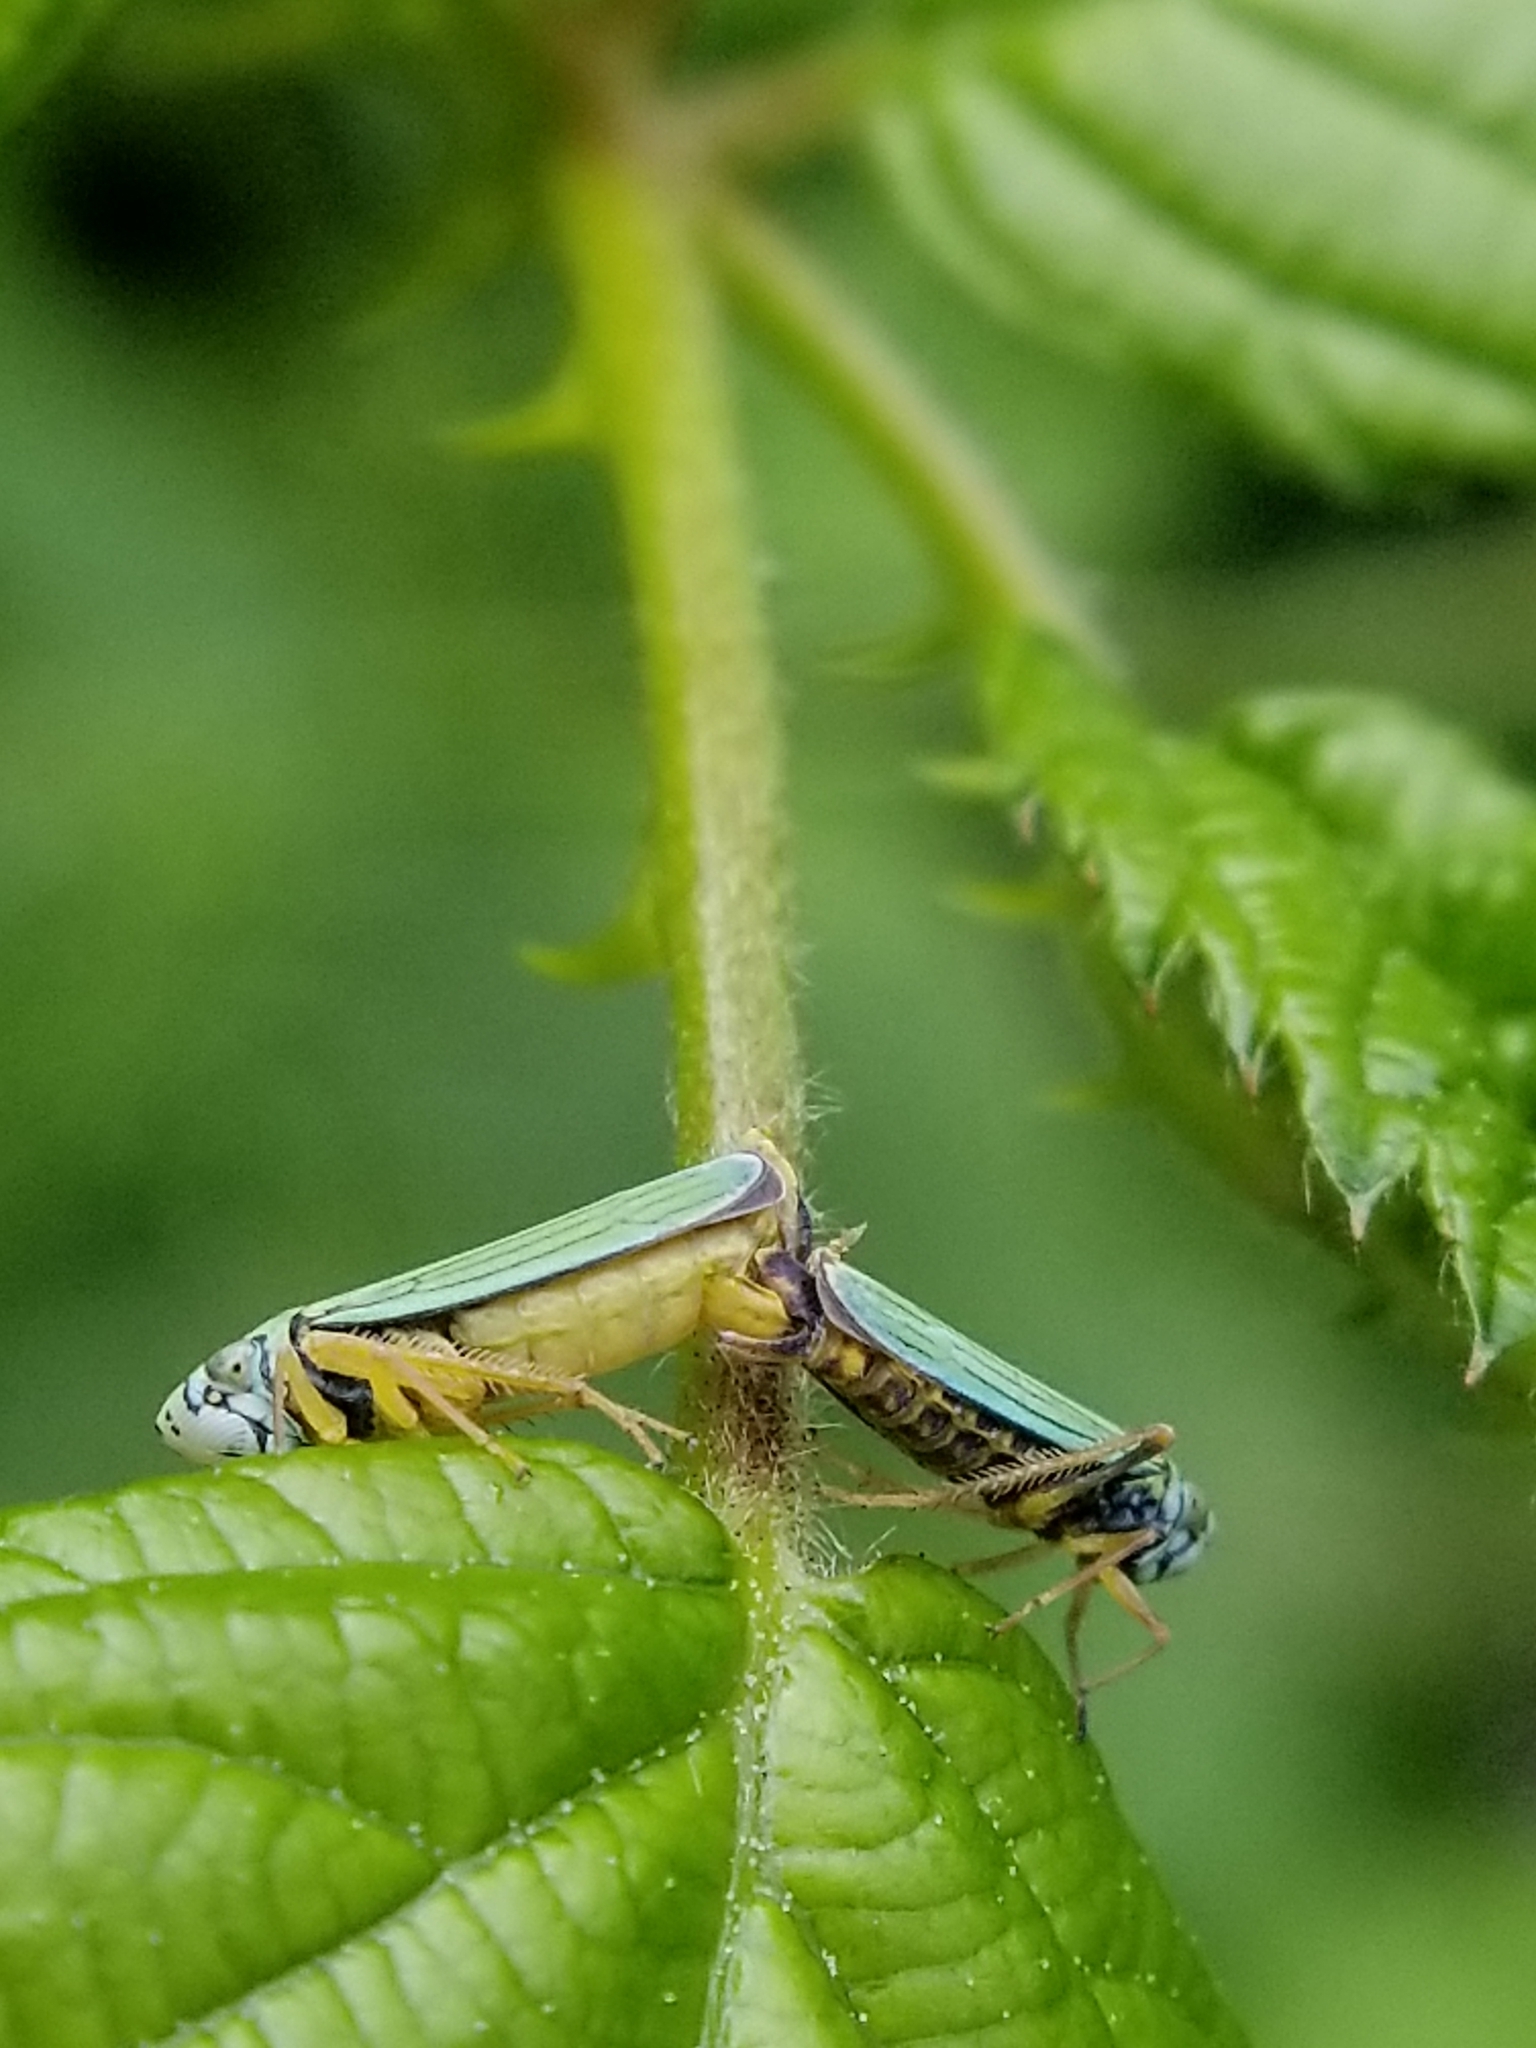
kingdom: Animalia
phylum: Arthropoda
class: Insecta
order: Hemiptera
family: Cicadellidae
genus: Graphocephala
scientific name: Graphocephala atropunctata
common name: Blue-green sharpshooter
